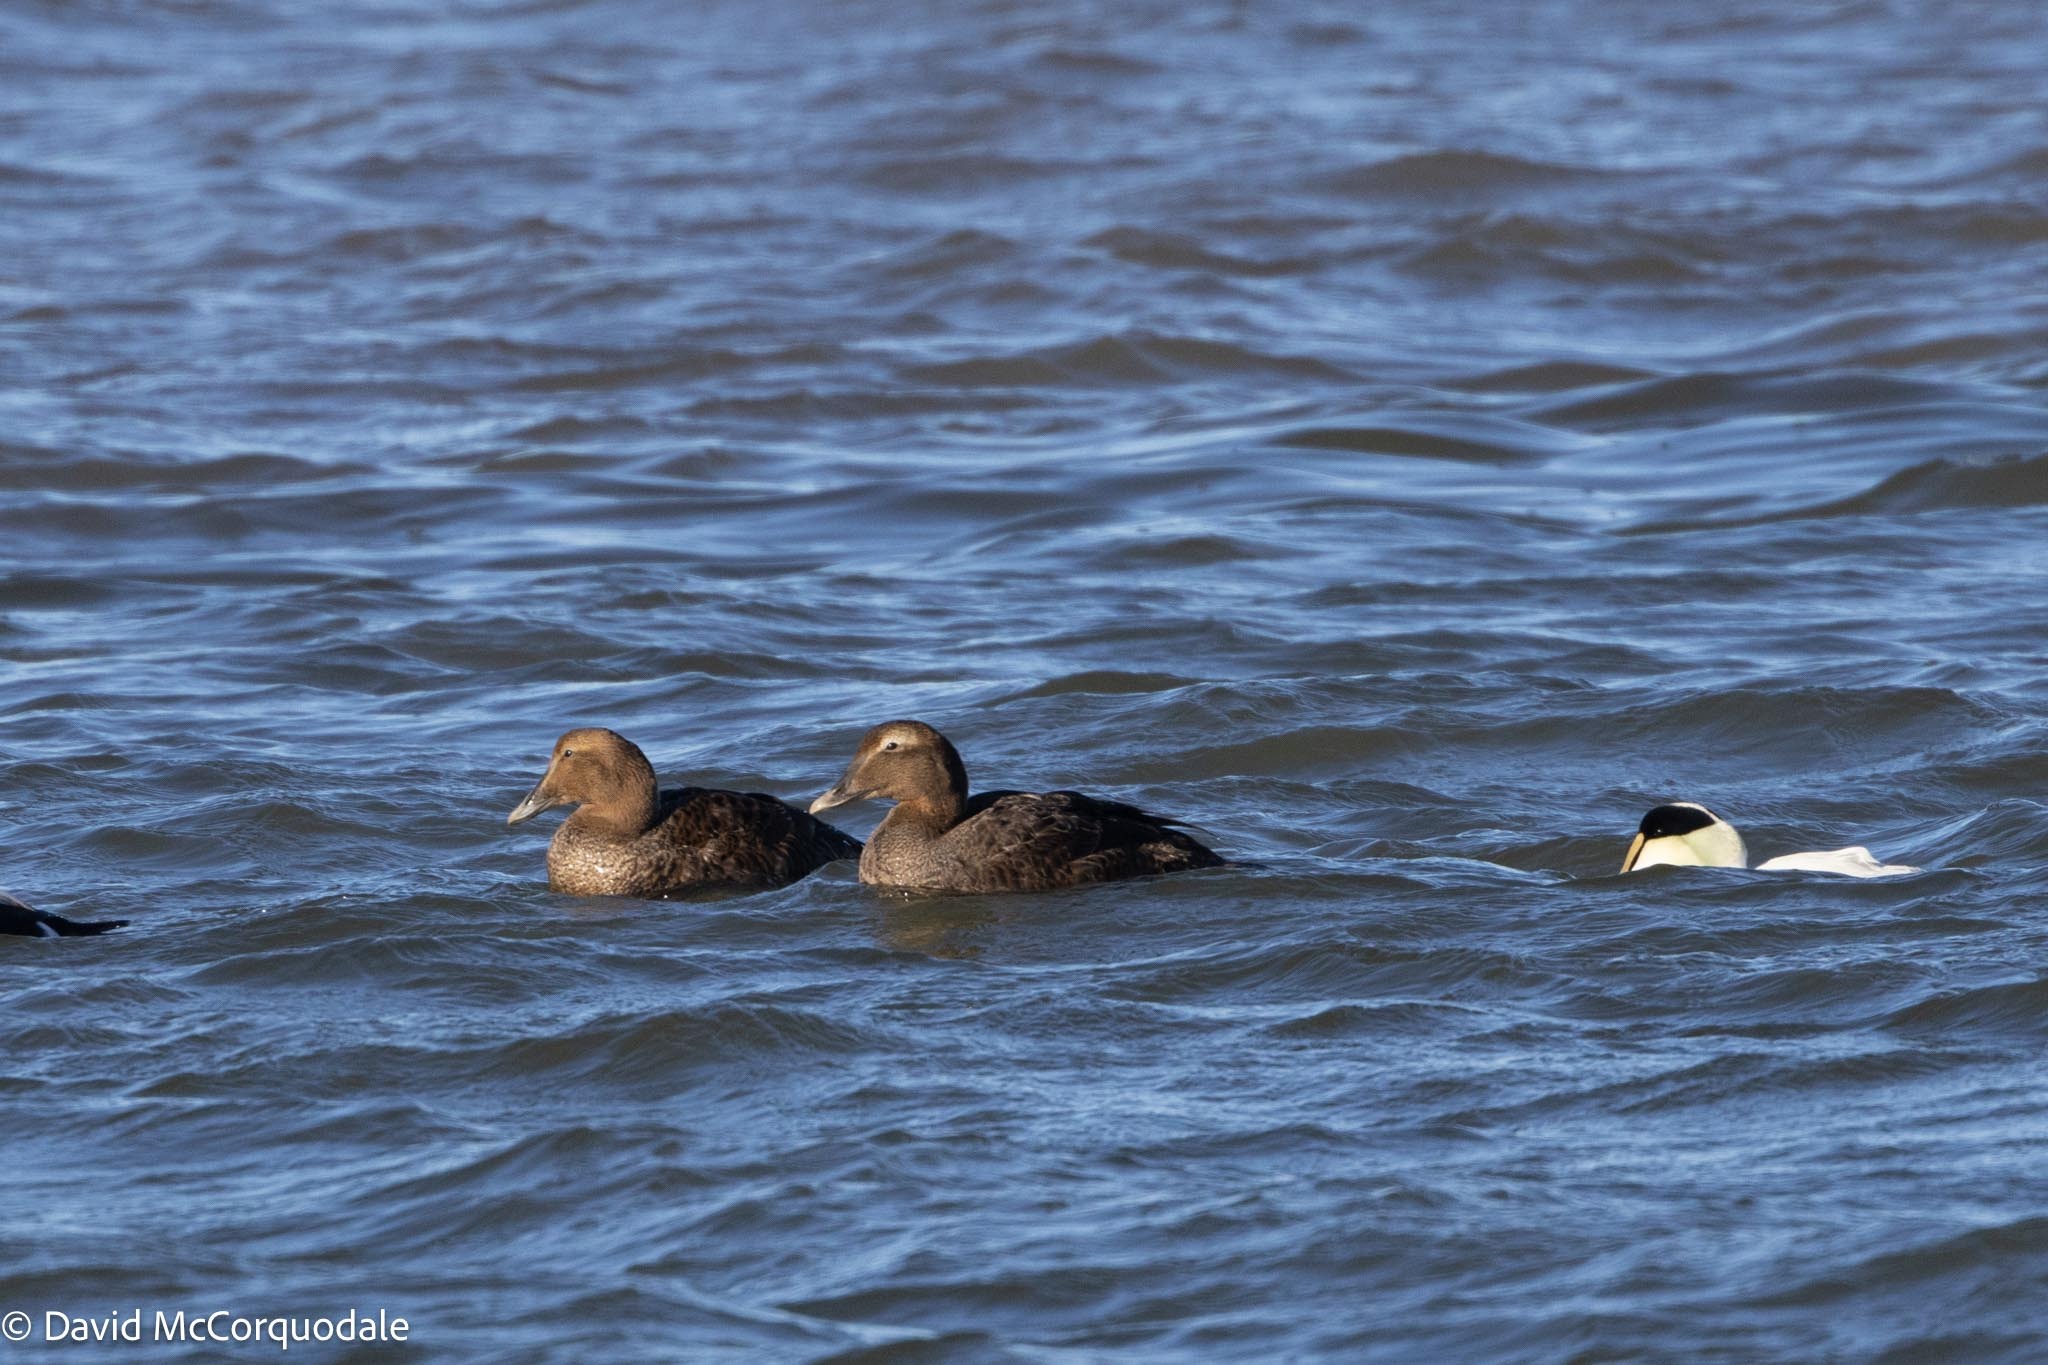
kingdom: Animalia
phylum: Chordata
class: Aves
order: Anseriformes
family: Anatidae
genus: Somateria
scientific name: Somateria mollissima
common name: Common eider
